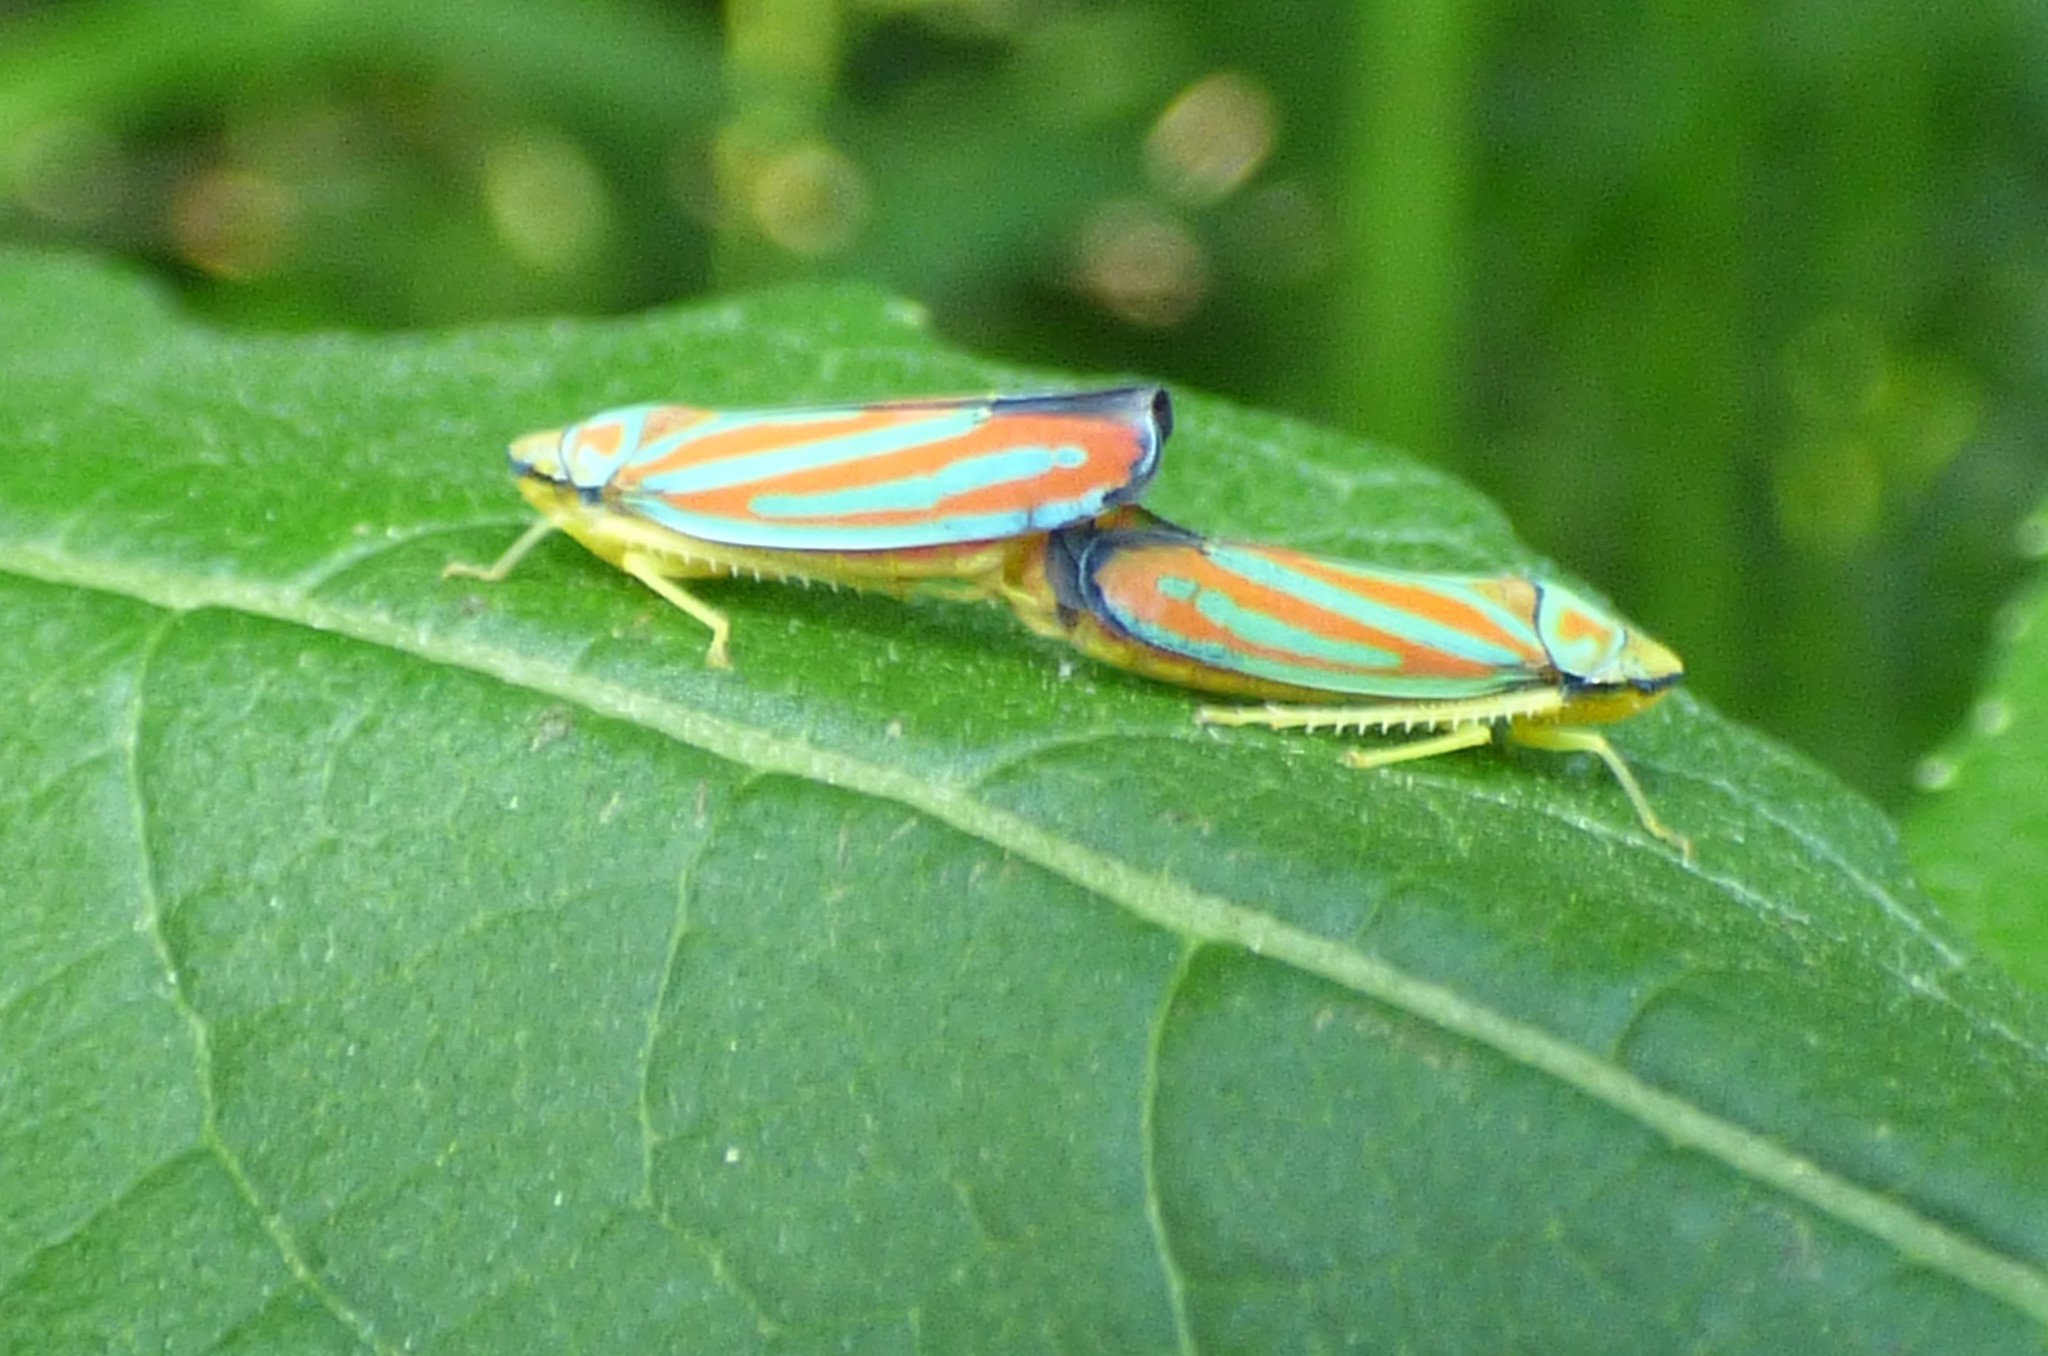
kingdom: Animalia
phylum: Arthropoda
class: Insecta
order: Hemiptera
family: Cicadellidae
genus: Graphocephala
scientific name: Graphocephala coccinea
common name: Candy-striped leafhopper
